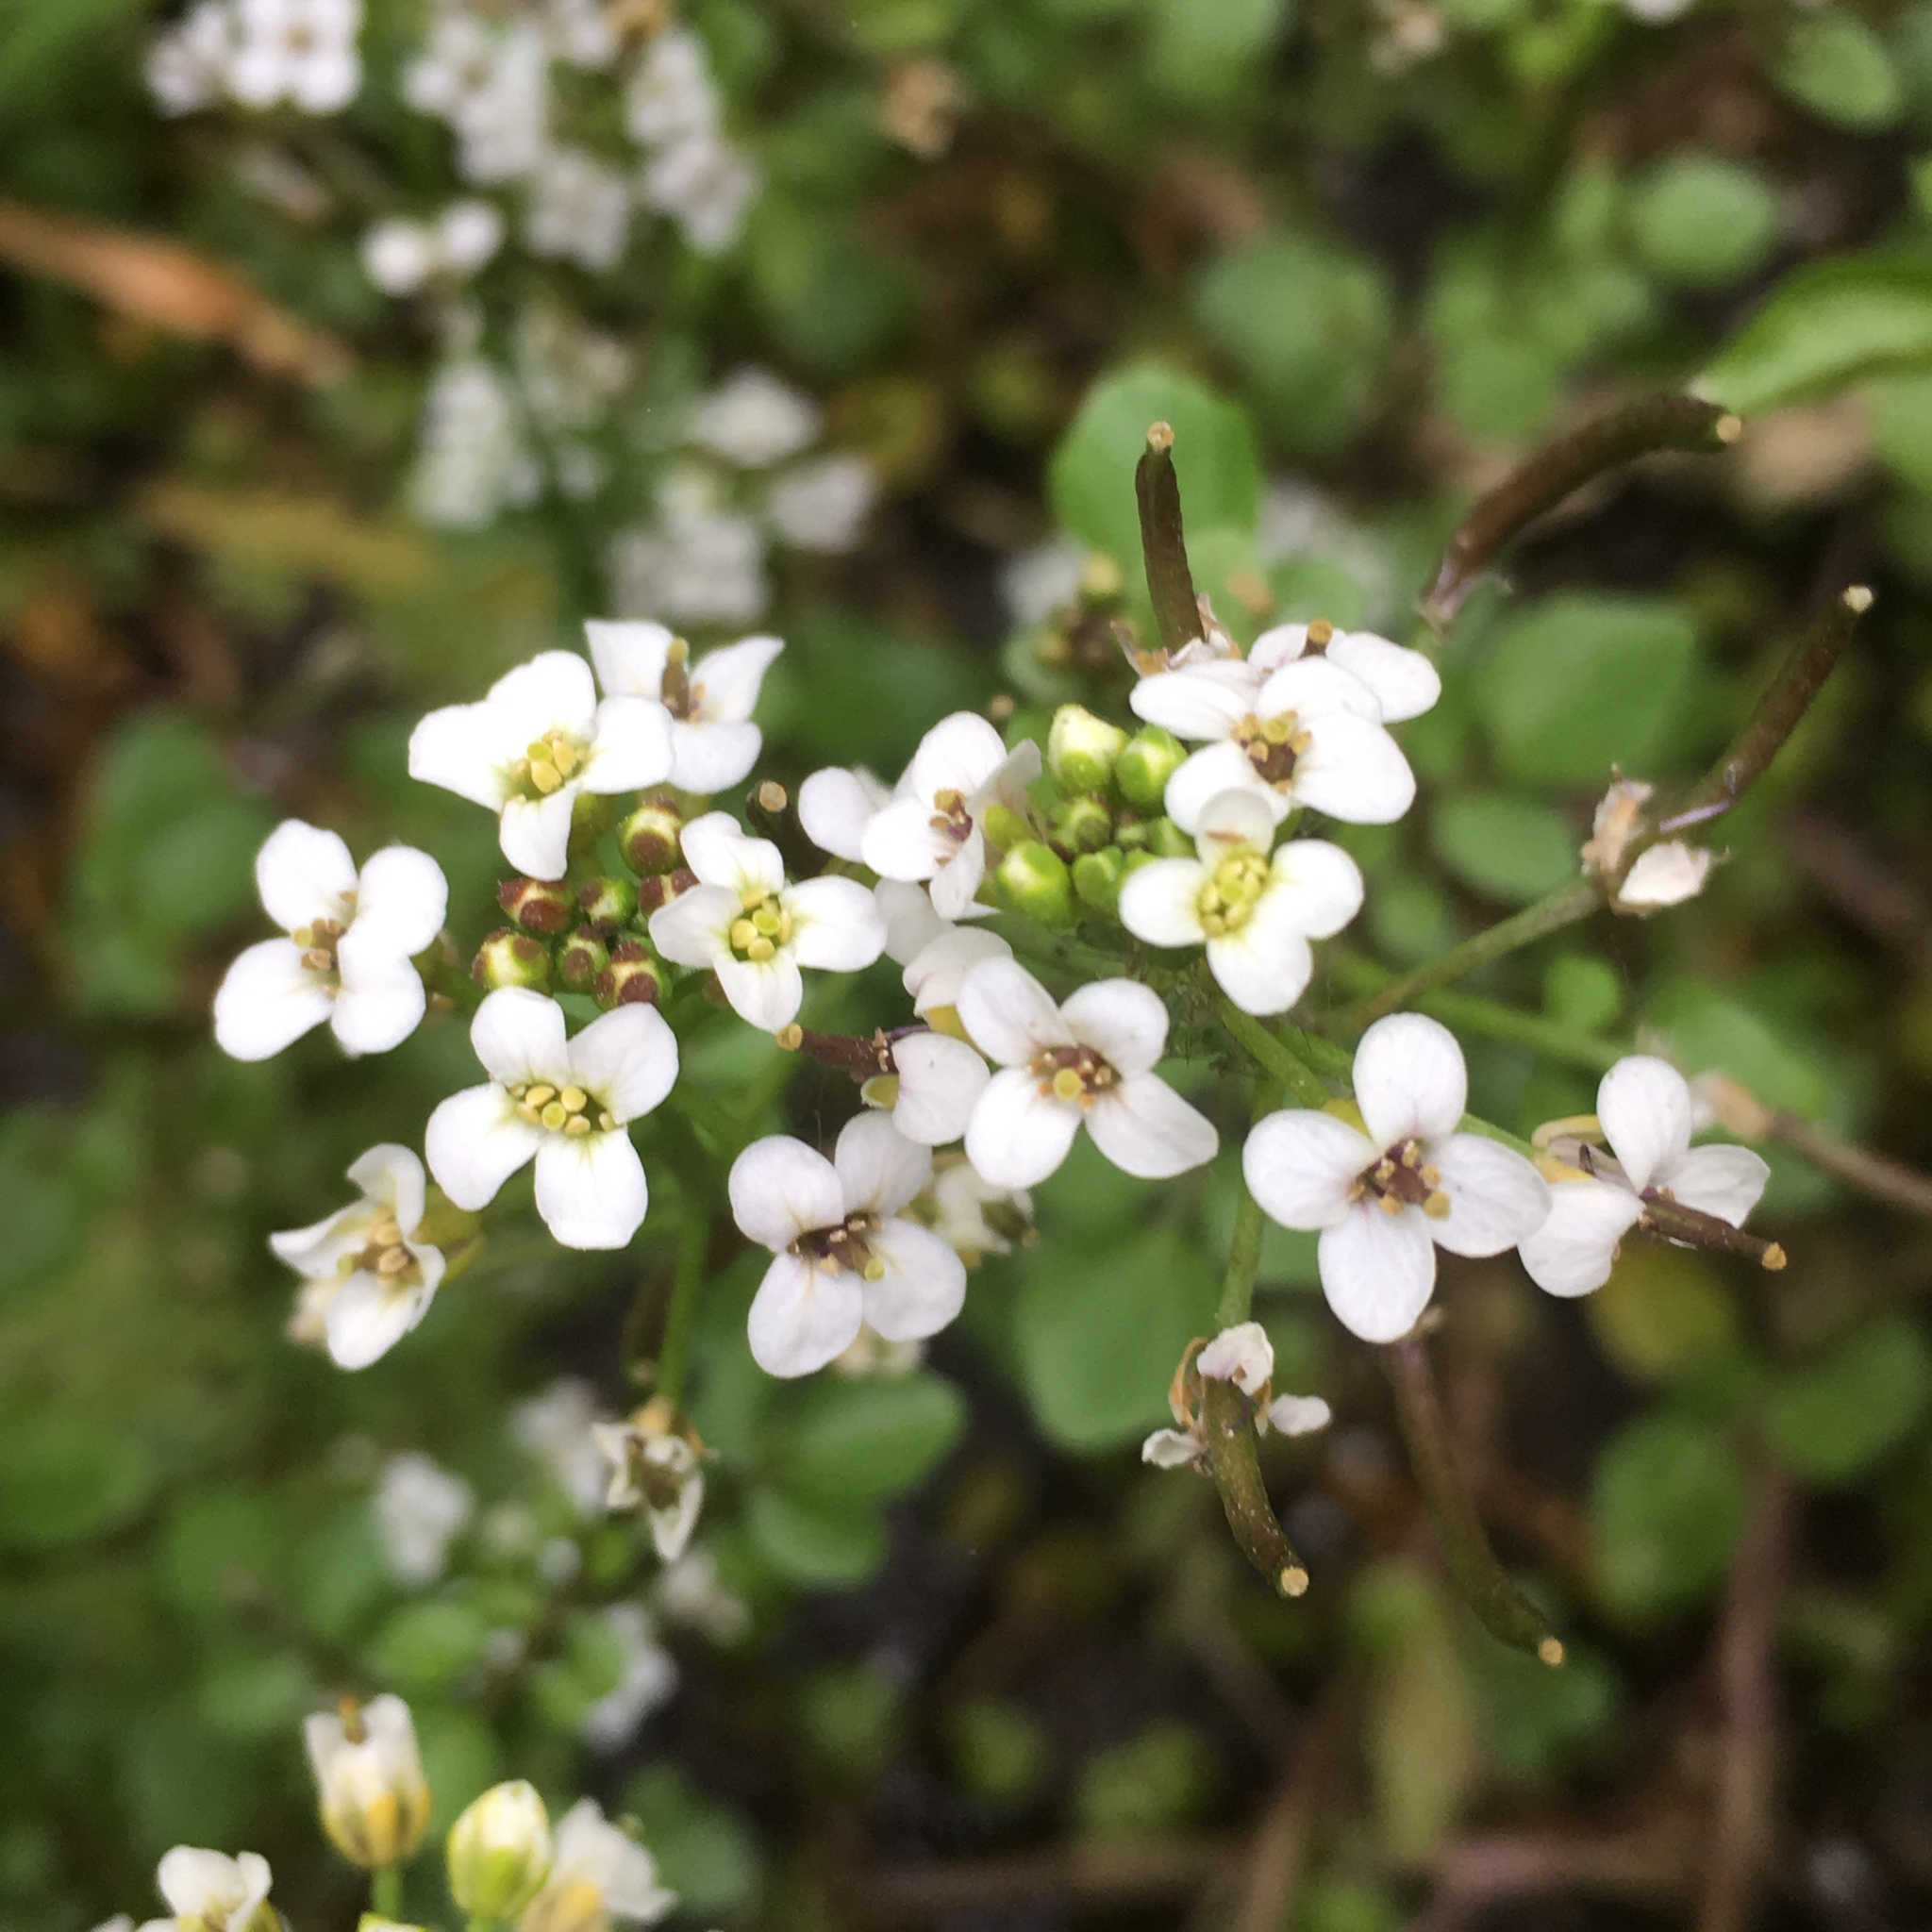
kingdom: Plantae
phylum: Tracheophyta
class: Magnoliopsida
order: Brassicales
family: Brassicaceae
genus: Nasturtium
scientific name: Nasturtium officinale
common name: Watercress
